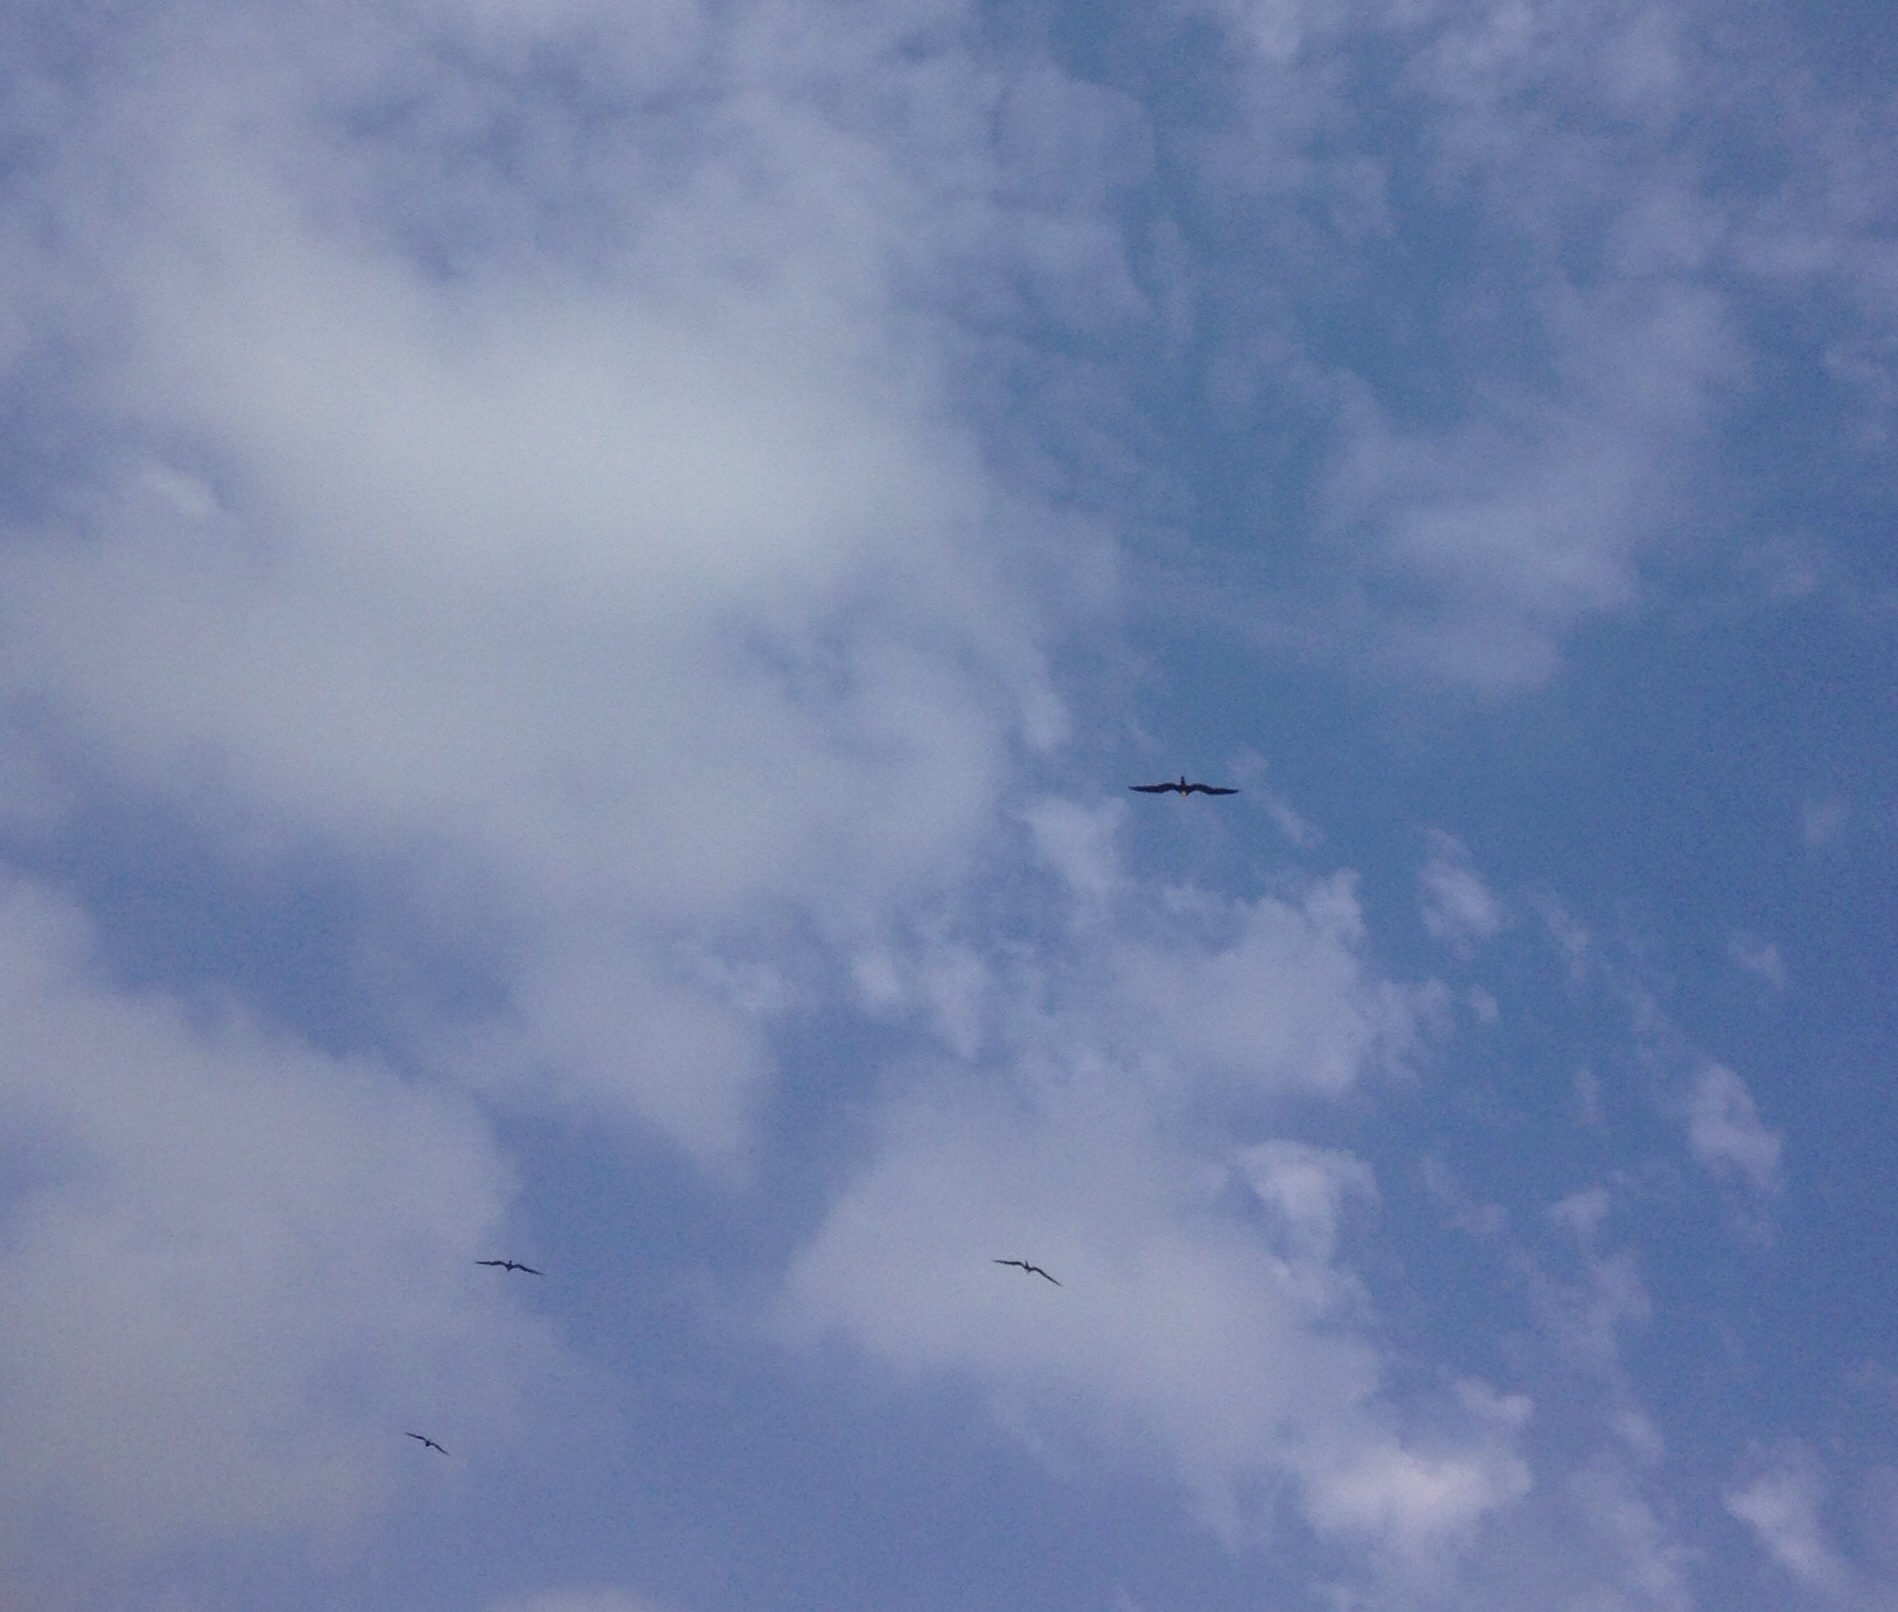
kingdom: Animalia
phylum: Chordata
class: Aves
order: Suliformes
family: Fregatidae
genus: Fregata
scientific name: Fregata magnificens
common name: Magnificent frigatebird
